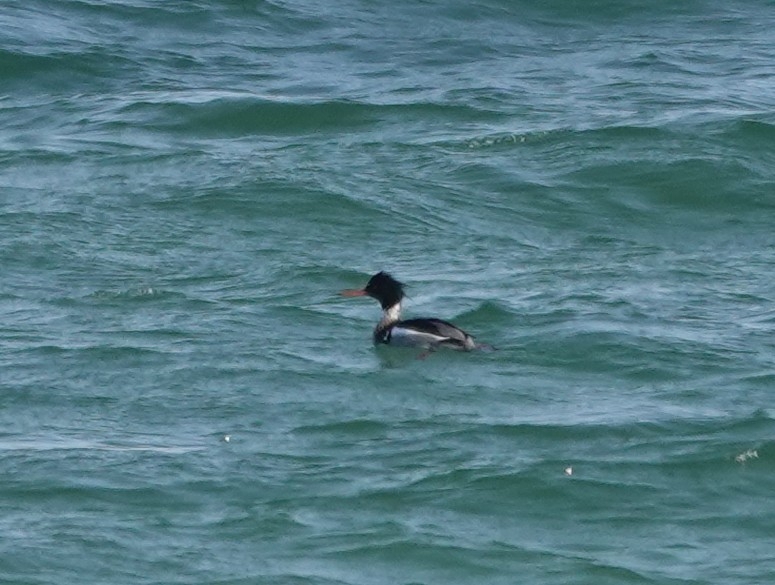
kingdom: Animalia
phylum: Chordata
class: Aves
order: Anseriformes
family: Anatidae
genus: Mergus
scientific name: Mergus serrator
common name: Red-breasted merganser
